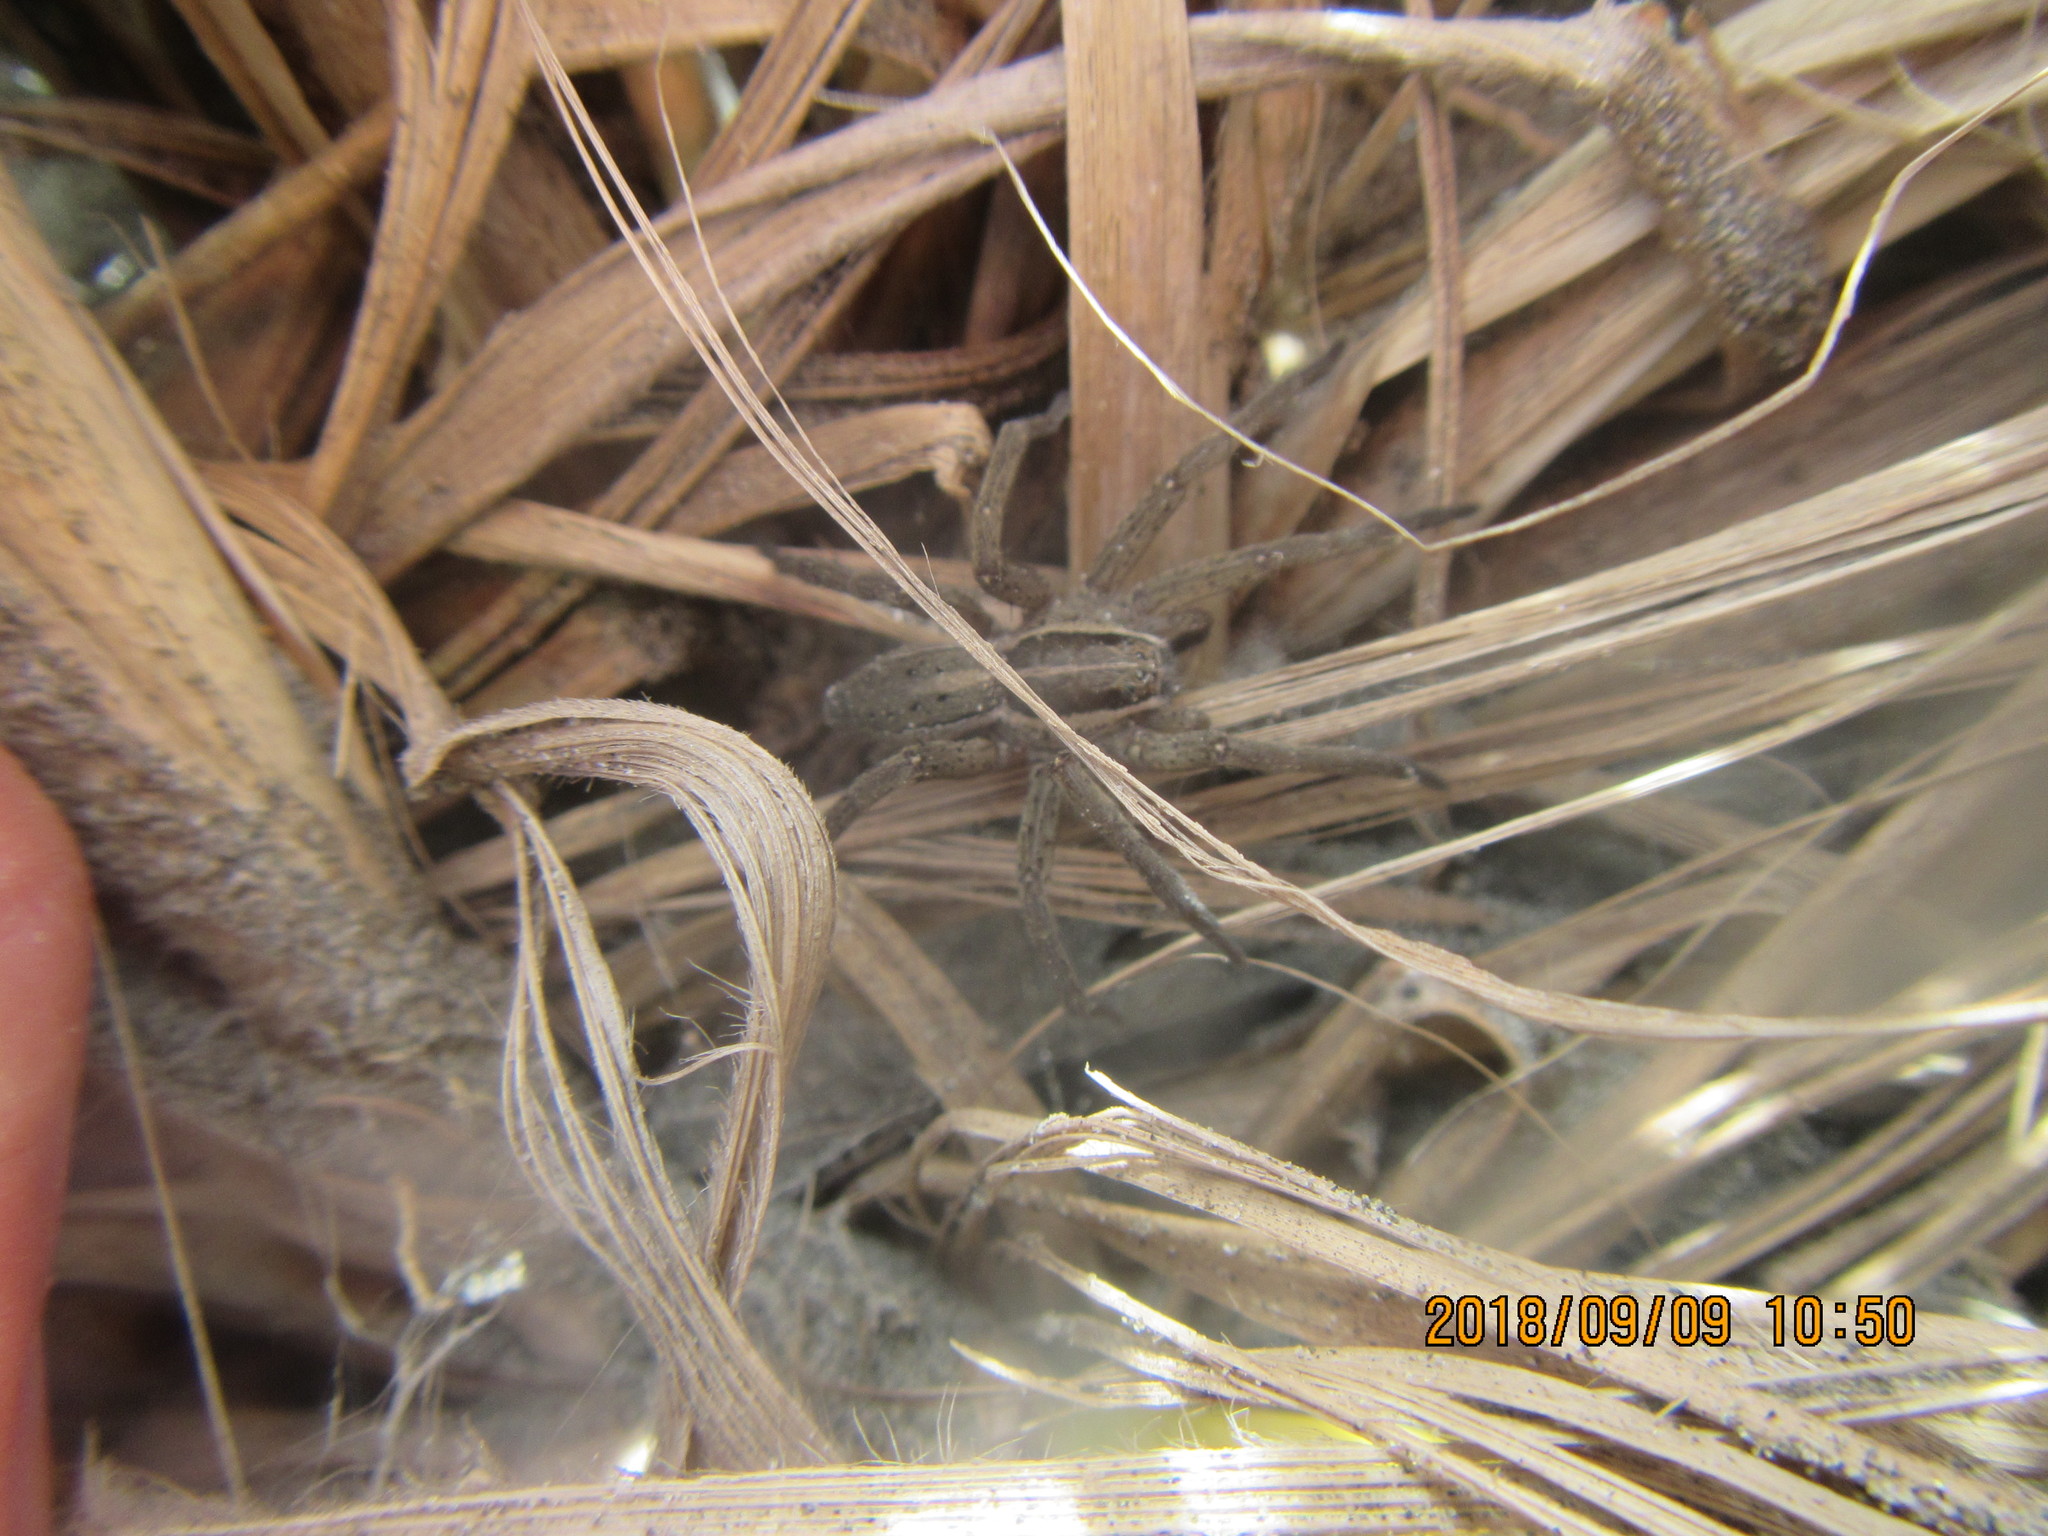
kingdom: Animalia
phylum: Arthropoda
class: Arachnida
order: Araneae
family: Pisauridae
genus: Dolomedes
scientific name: Dolomedes minor
